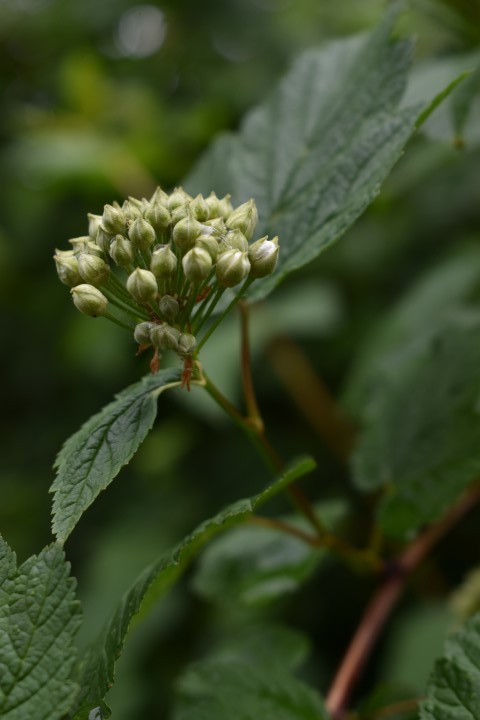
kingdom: Plantae
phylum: Tracheophyta
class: Magnoliopsida
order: Rosales
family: Rosaceae
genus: Physocarpus
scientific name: Physocarpus capitatus
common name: Pacific ninebark
